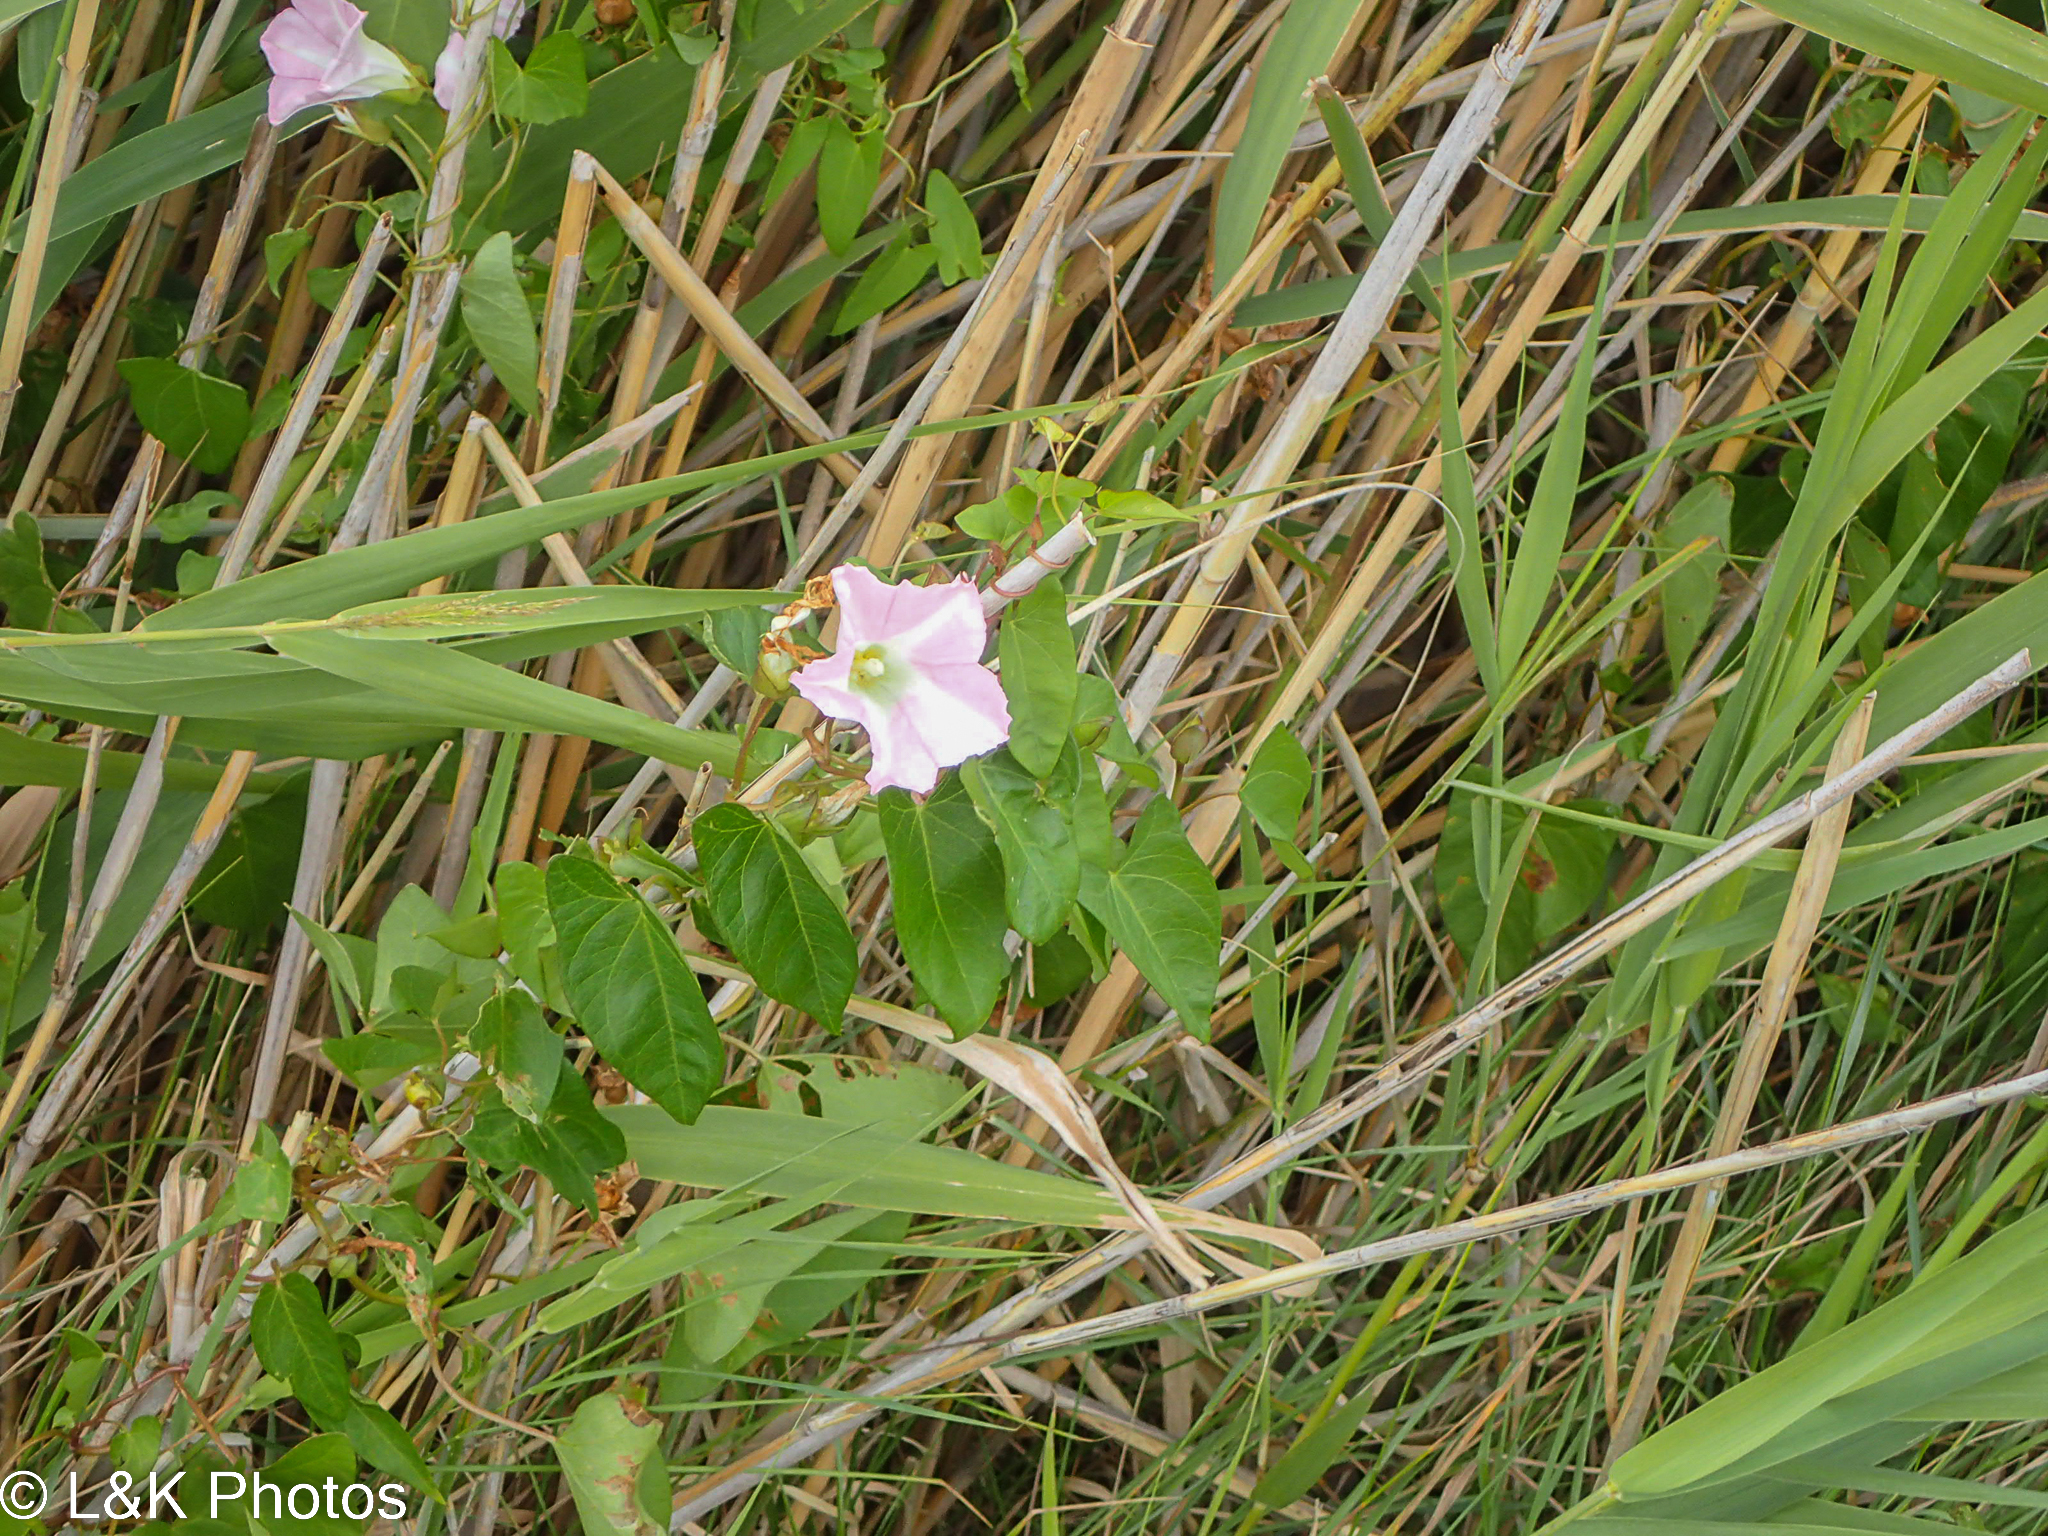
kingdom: Plantae
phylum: Tracheophyta
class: Magnoliopsida
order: Solanales
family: Convolvulaceae
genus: Calystegia
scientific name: Calystegia sepium
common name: Hedge bindweed
